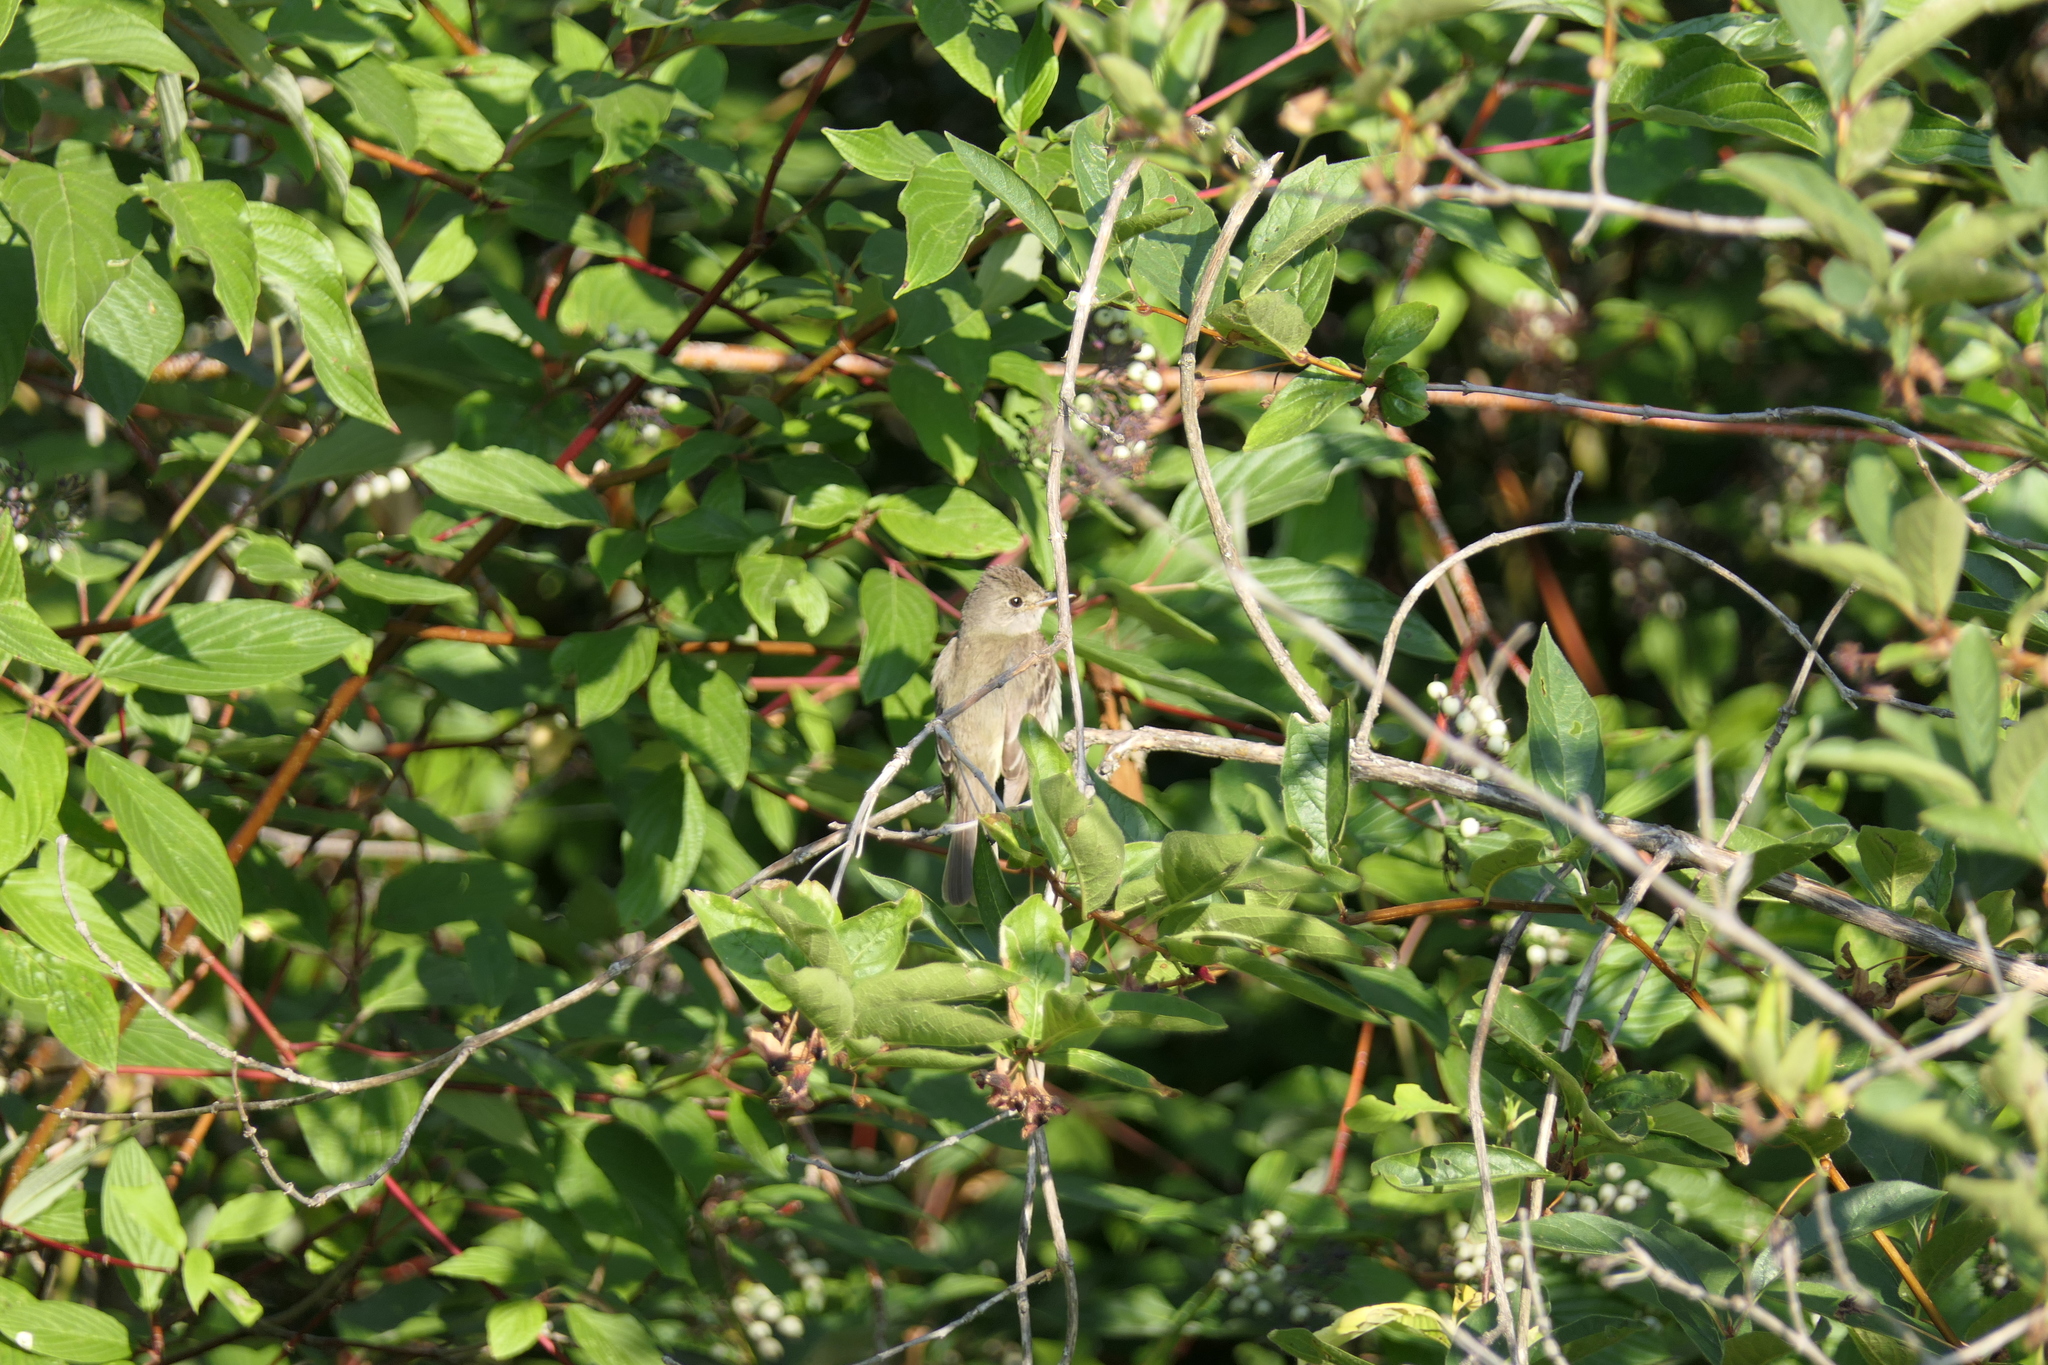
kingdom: Animalia
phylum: Chordata
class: Aves
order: Passeriformes
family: Tyrannidae
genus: Empidonax
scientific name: Empidonax traillii
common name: Willow flycatcher
